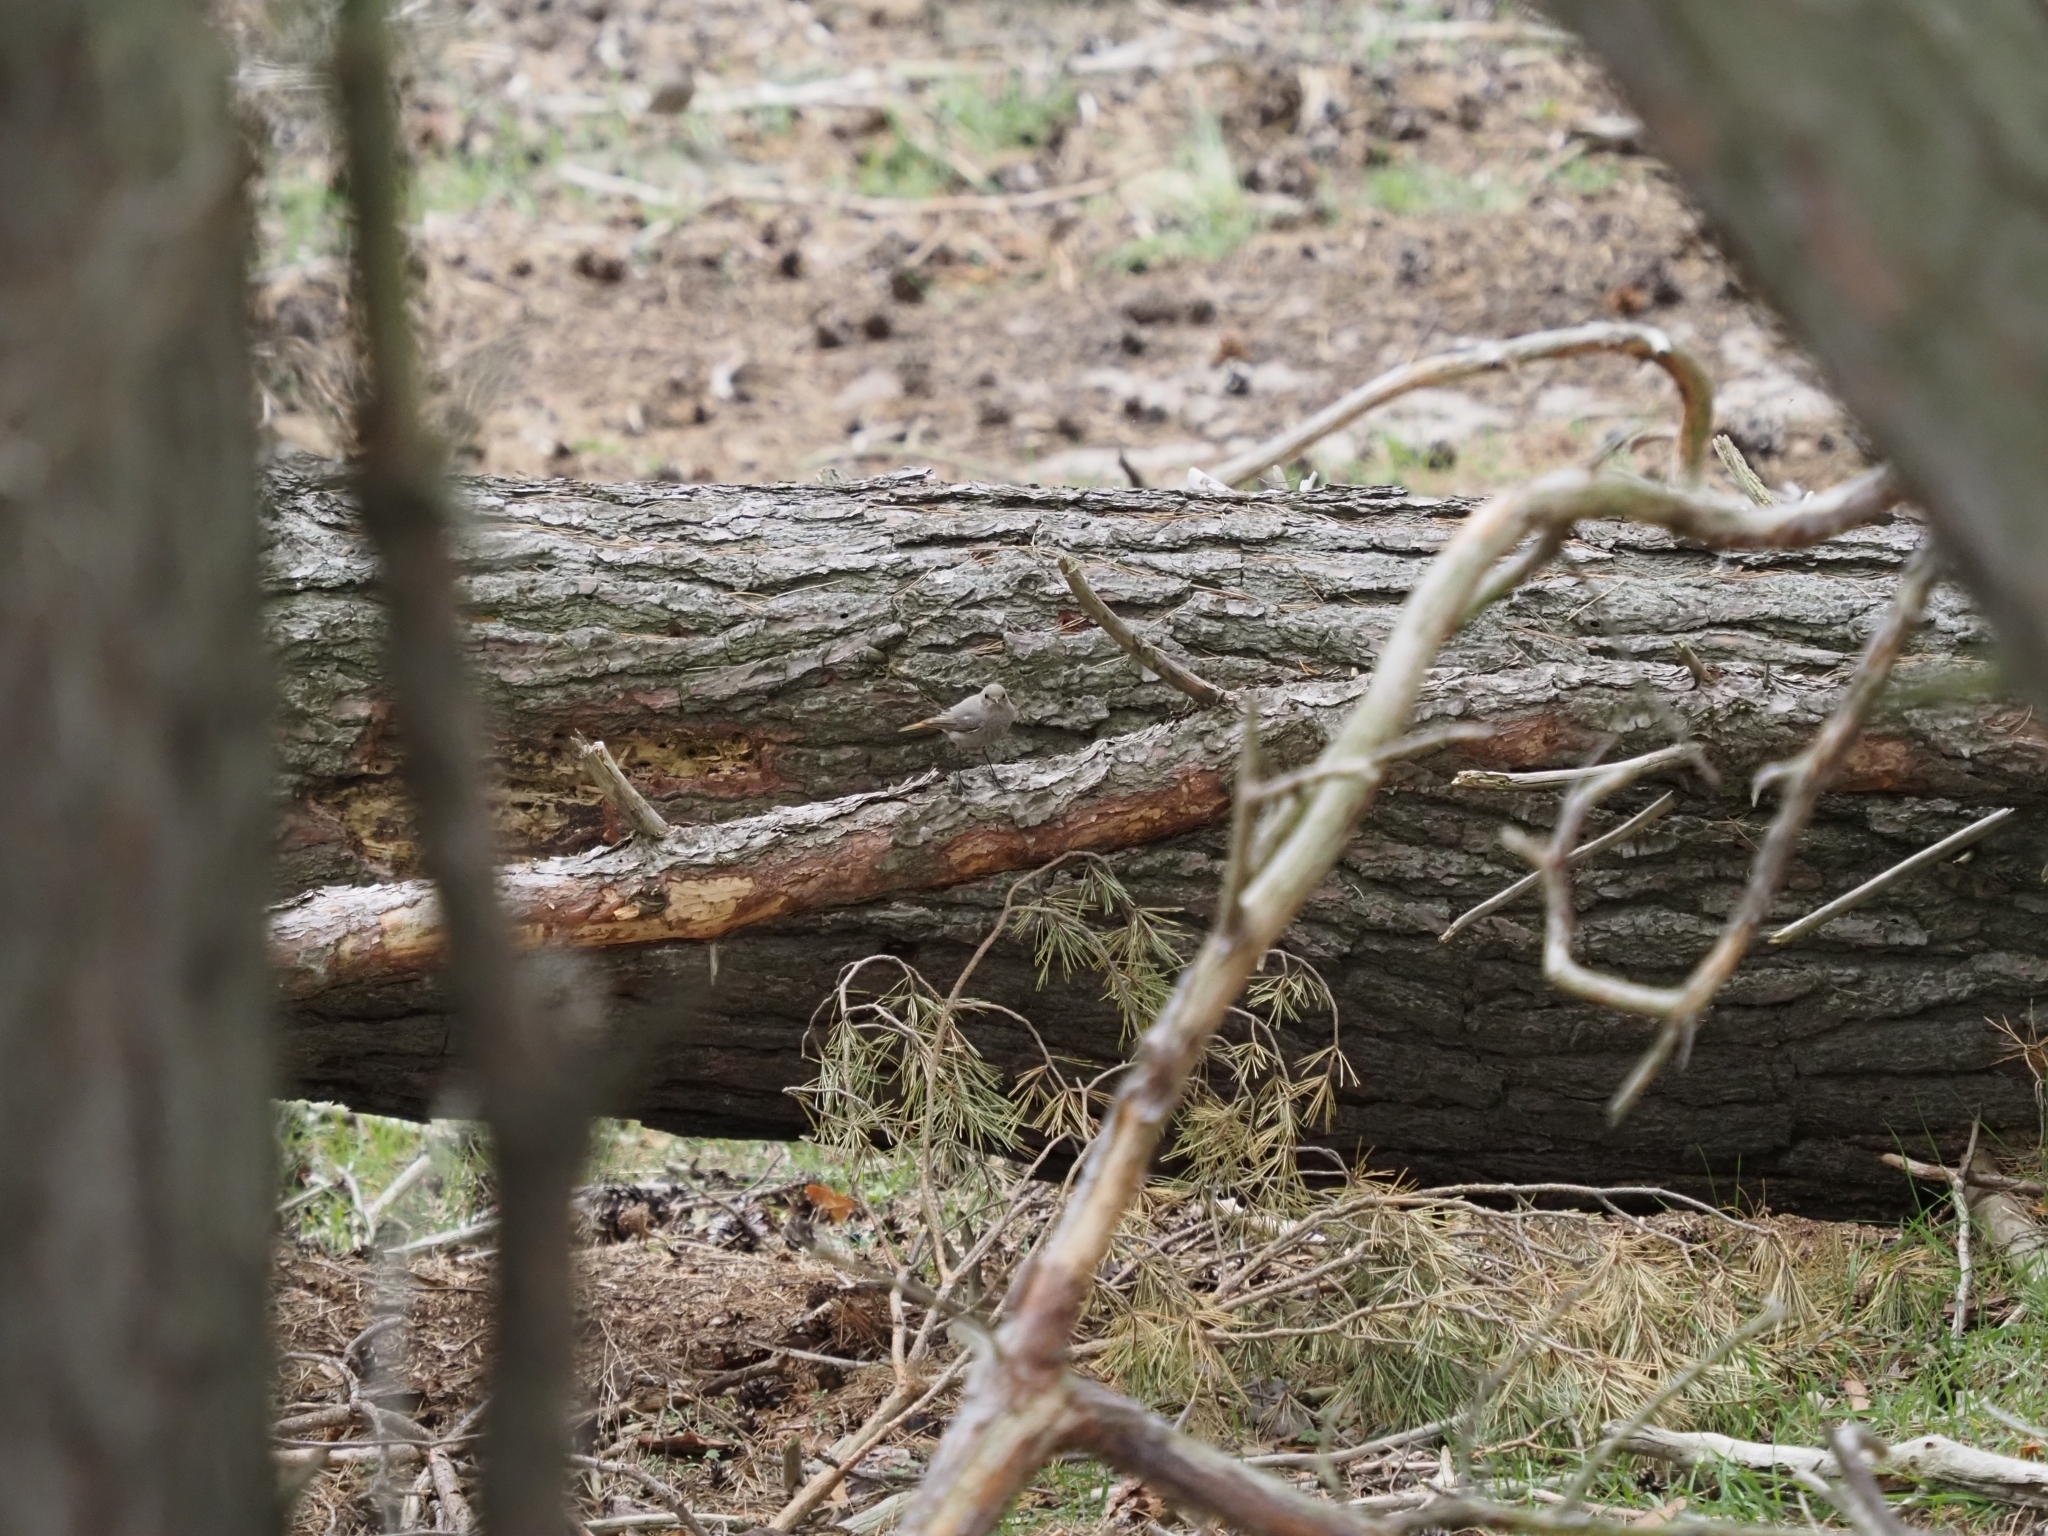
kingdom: Animalia
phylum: Chordata
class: Aves
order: Passeriformes
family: Muscicapidae
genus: Phoenicurus
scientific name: Phoenicurus ochruros
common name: Black redstart
